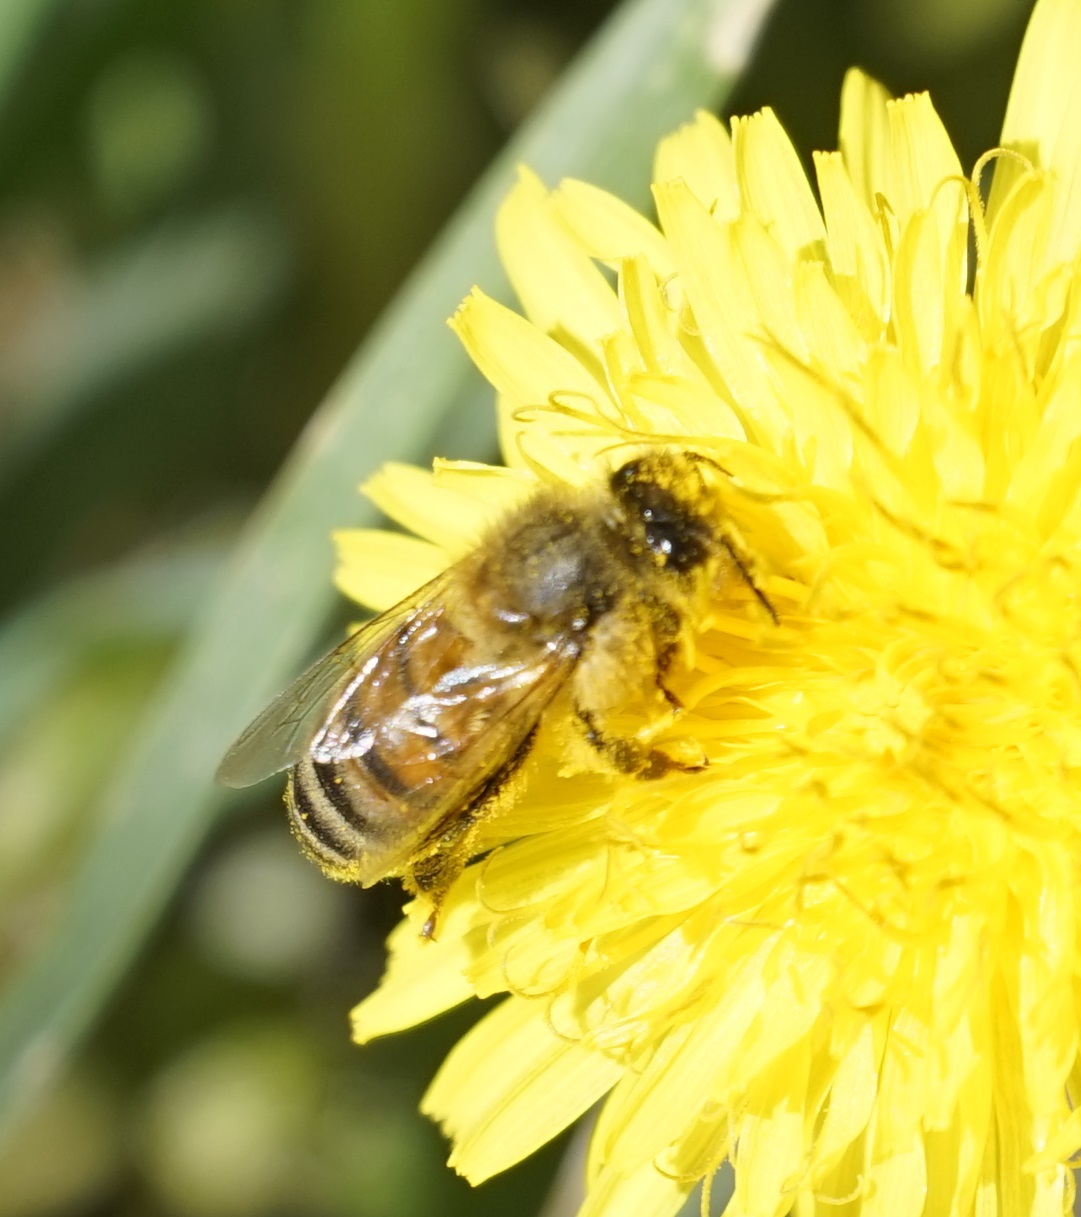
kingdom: Animalia
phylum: Arthropoda
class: Insecta
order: Hymenoptera
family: Apidae
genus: Apis
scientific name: Apis mellifera
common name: Honey bee
